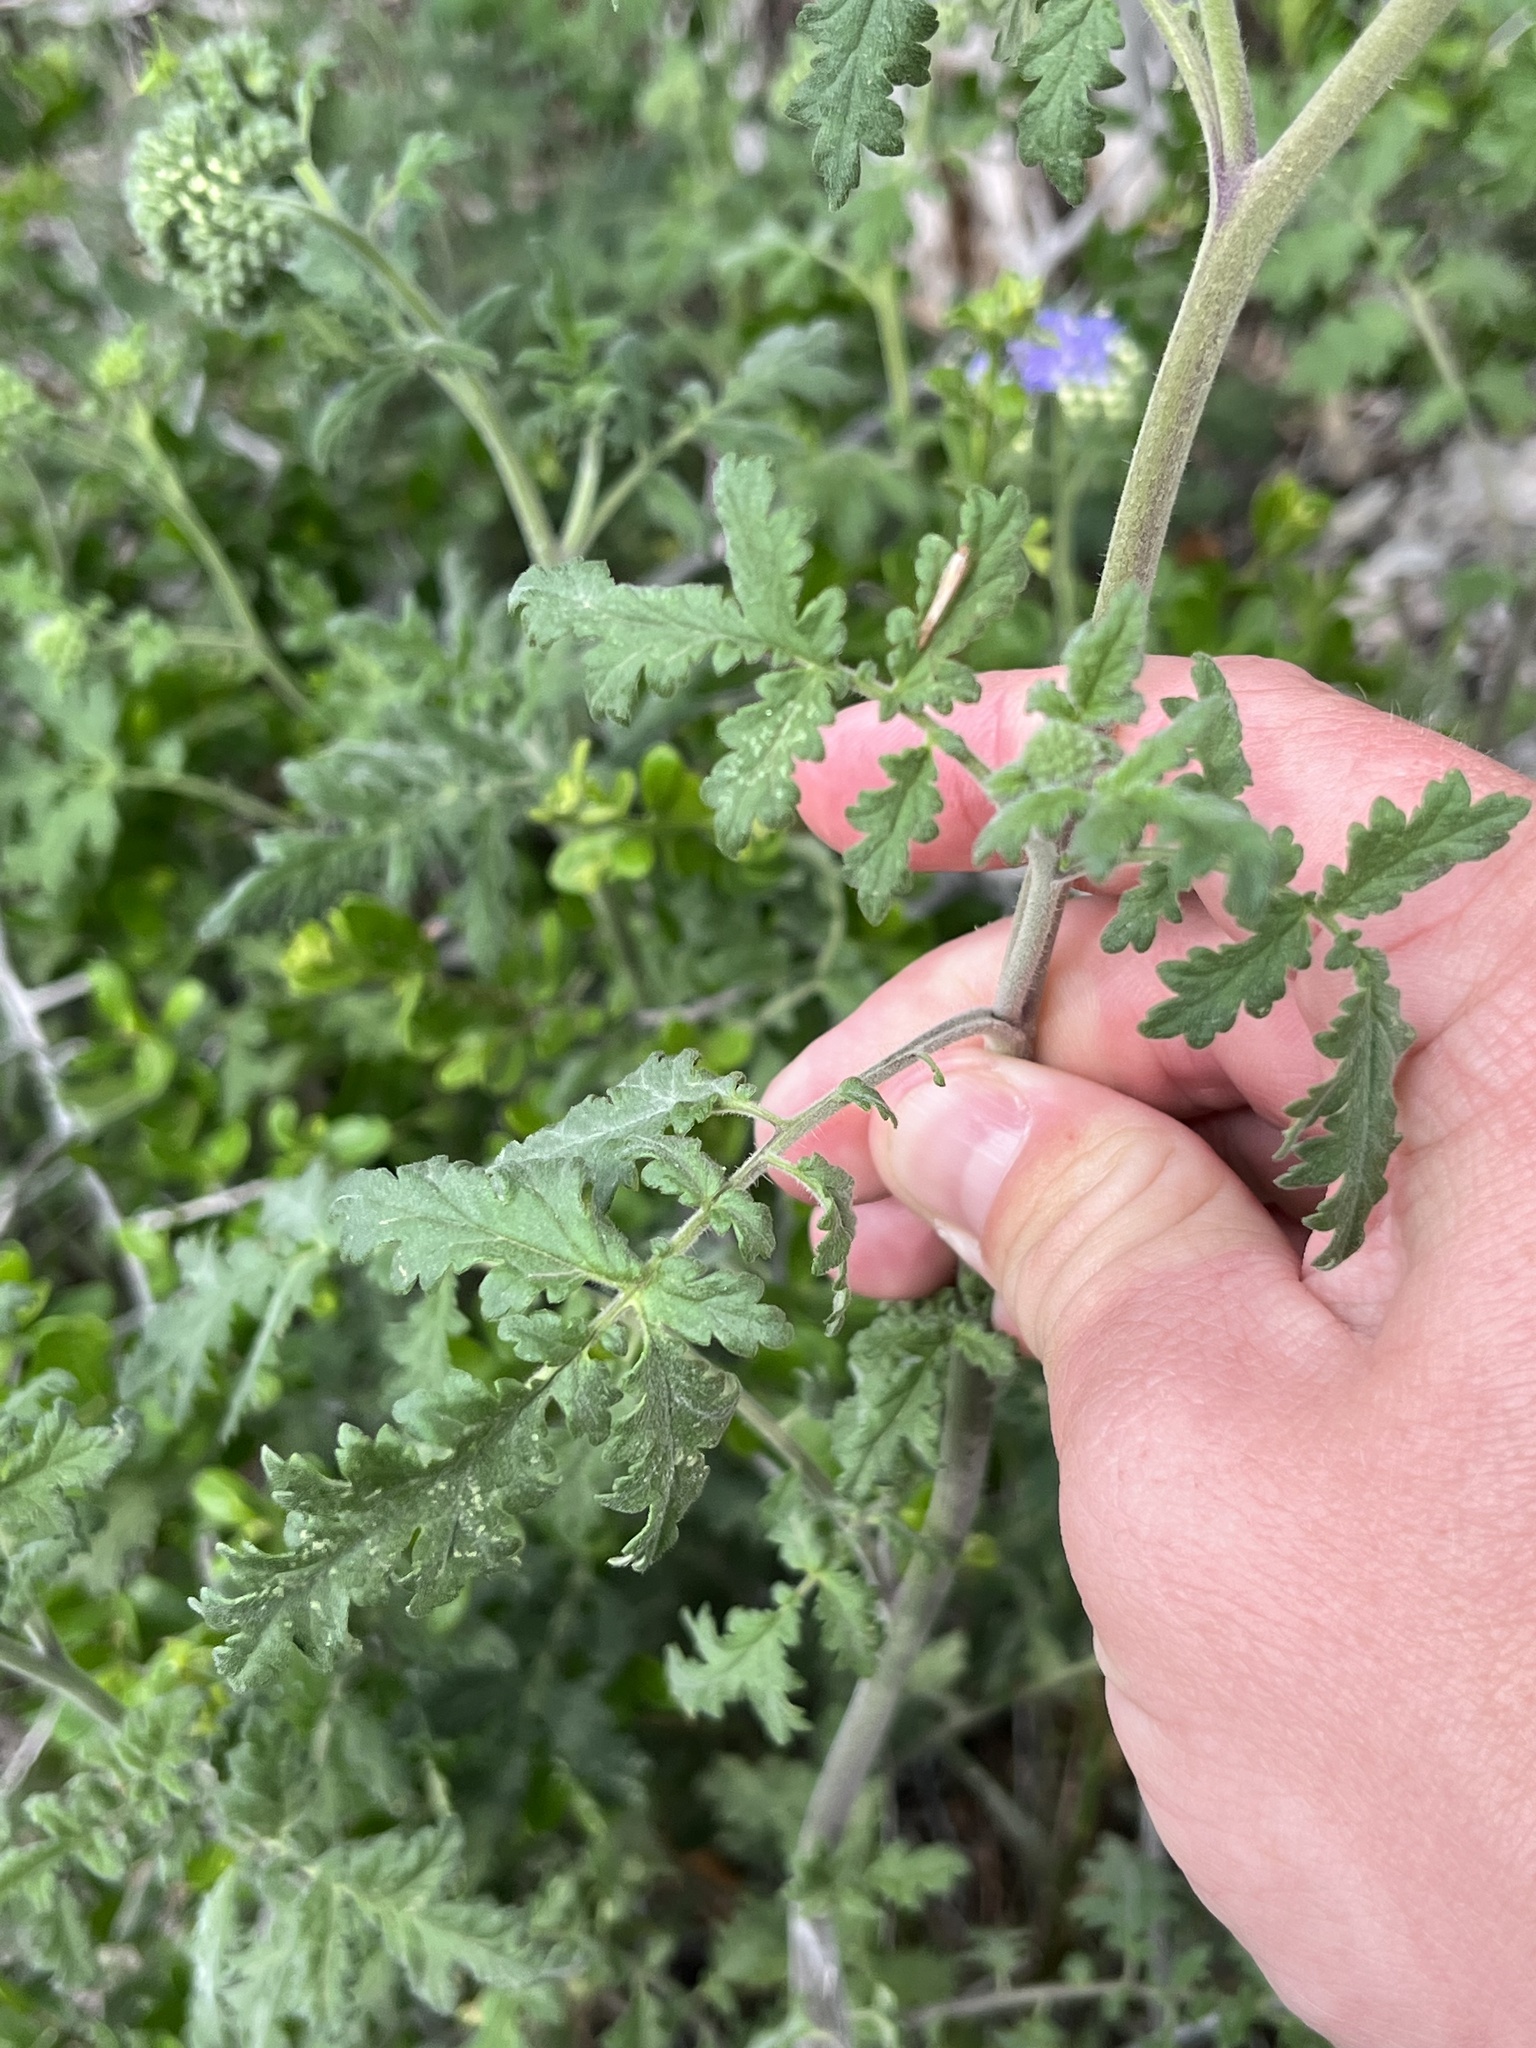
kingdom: Plantae
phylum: Tracheophyta
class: Magnoliopsida
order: Boraginales
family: Hydrophyllaceae
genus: Phacelia
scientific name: Phacelia congesta
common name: Blue curls
